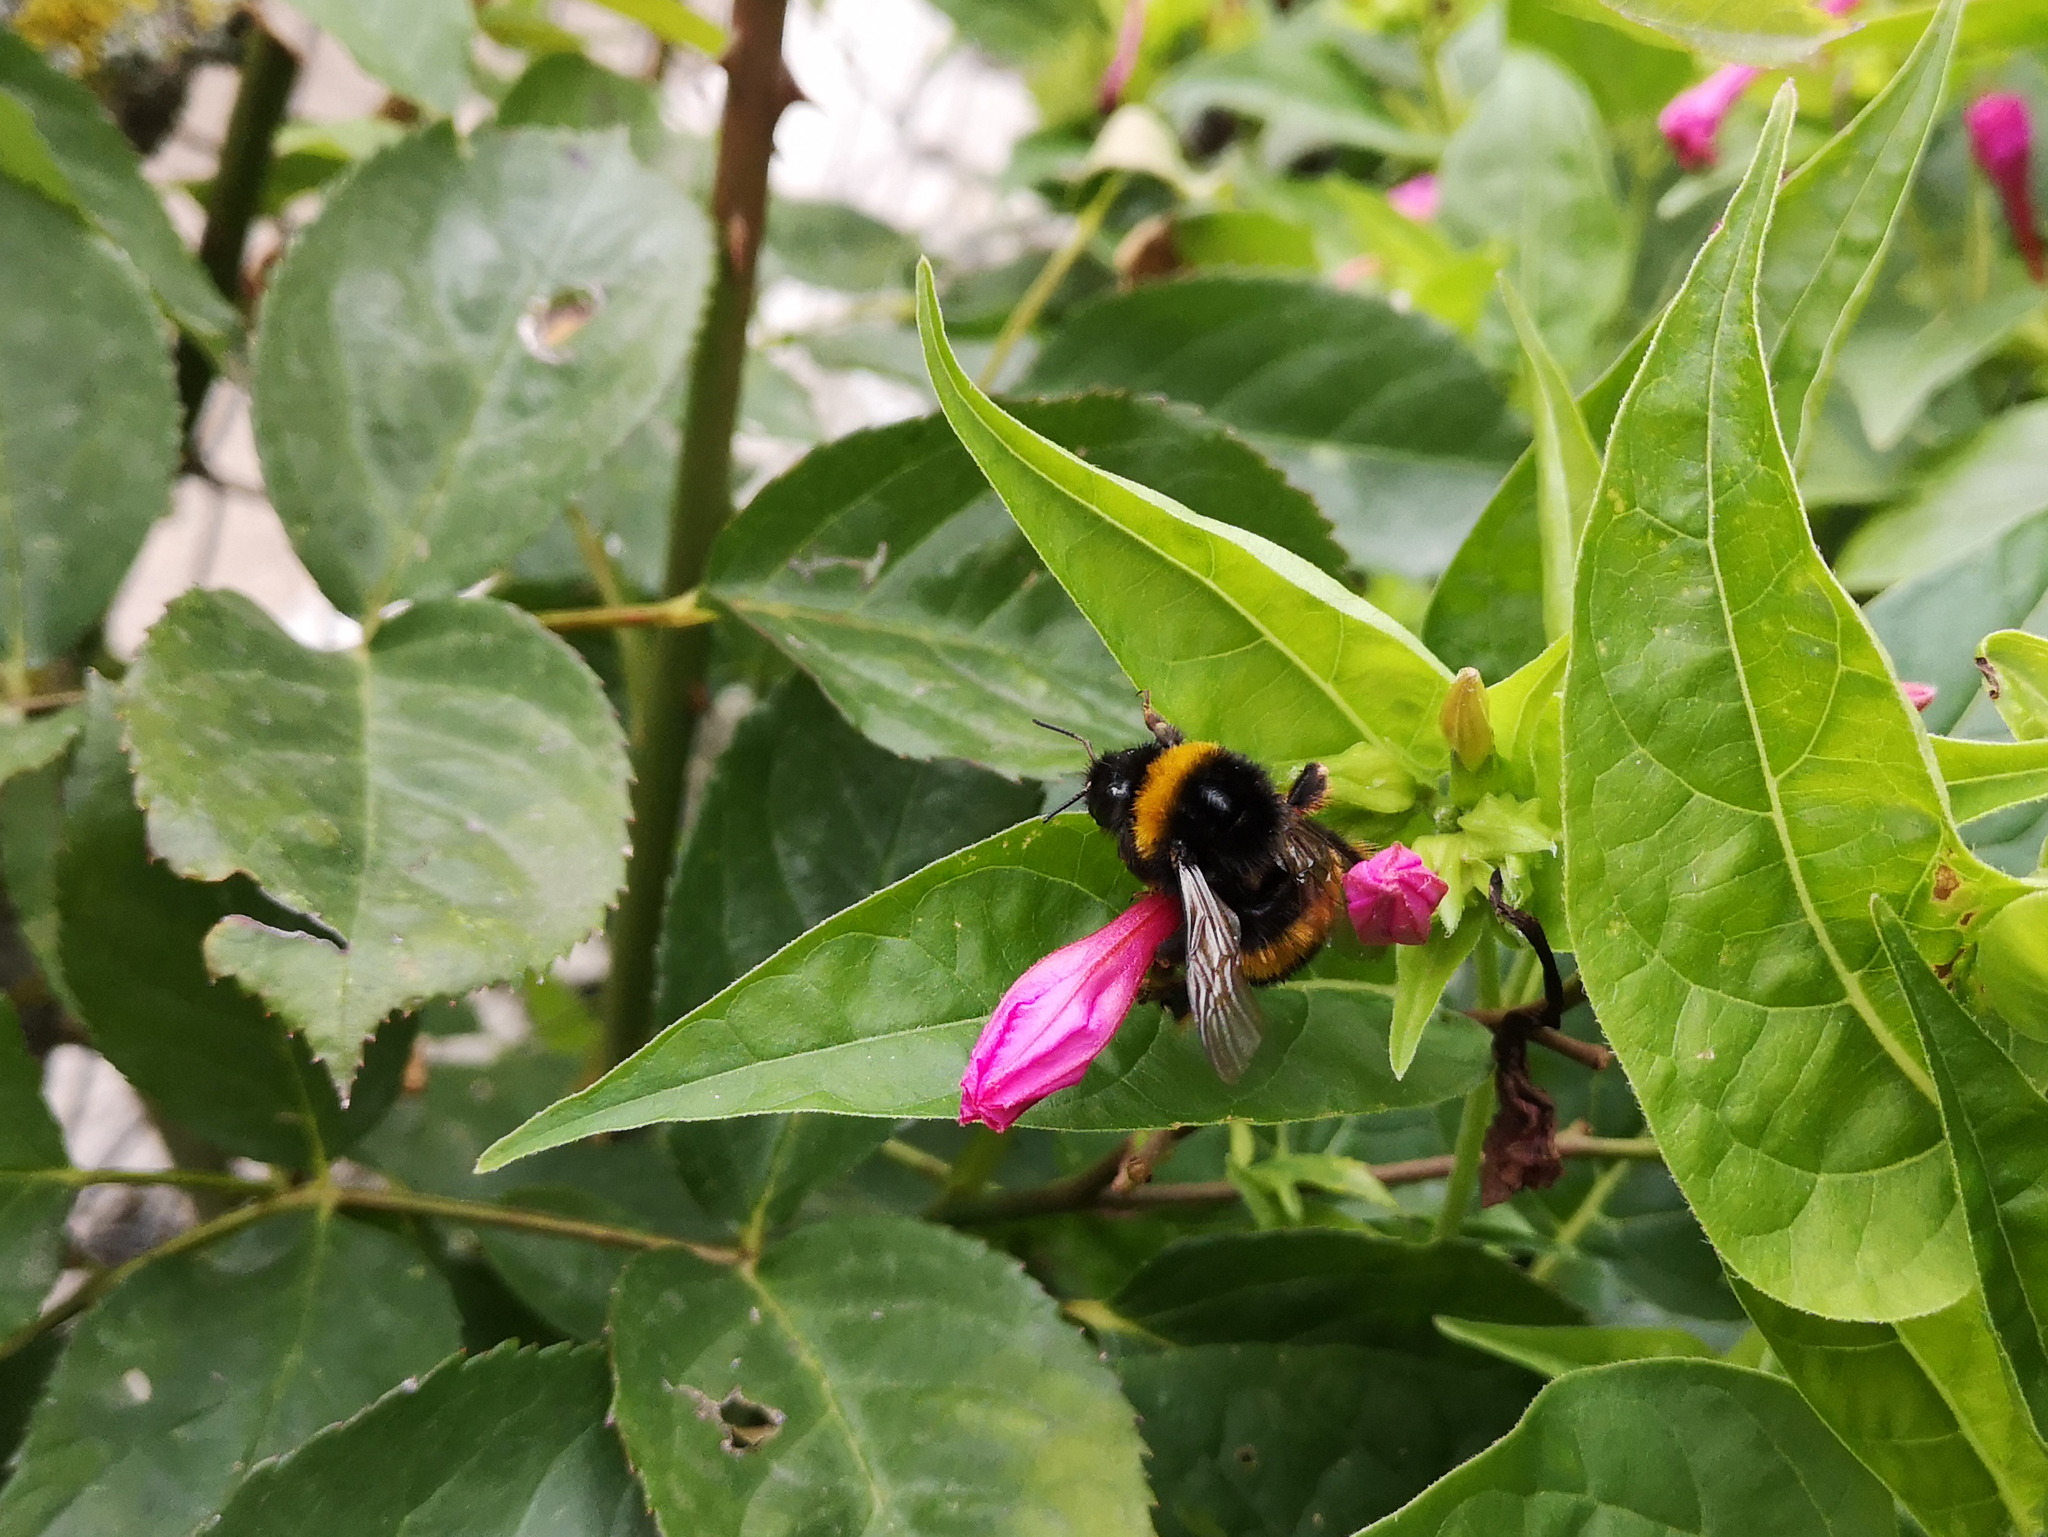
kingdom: Animalia
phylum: Arthropoda
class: Insecta
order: Hymenoptera
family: Apidae
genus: Bombus
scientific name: Bombus terrestris
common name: Buff-tailed bumblebee
